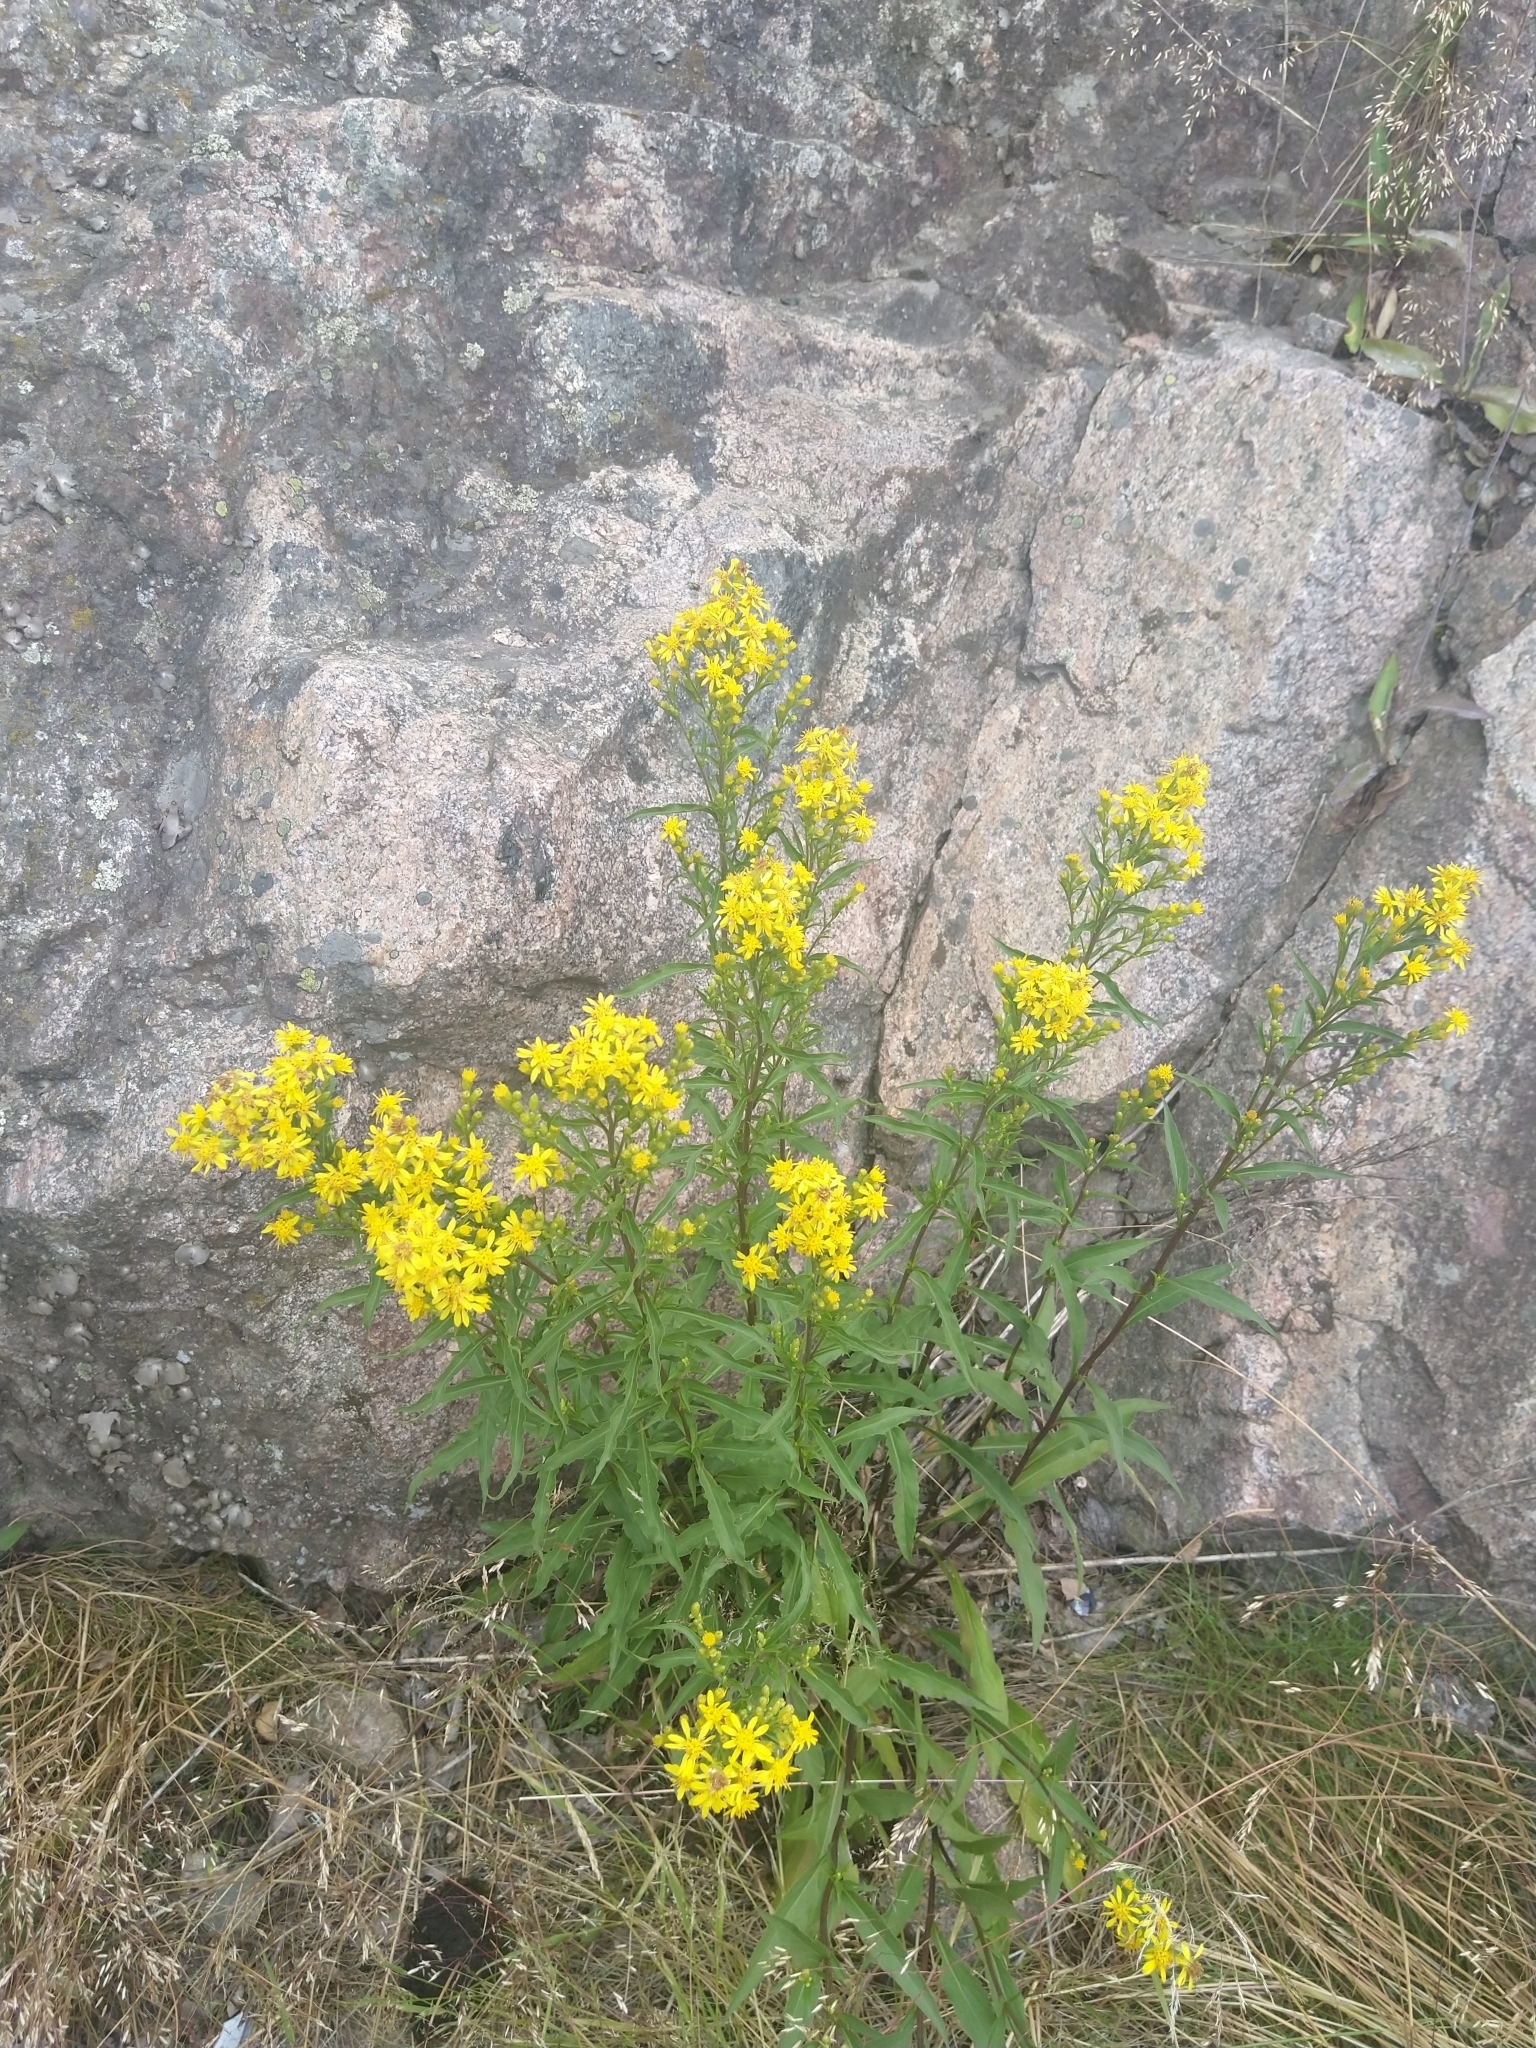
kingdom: Plantae
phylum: Tracheophyta
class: Magnoliopsida
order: Asterales
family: Asteraceae
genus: Solidago
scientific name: Solidago virgaurea
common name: Goldenrod
